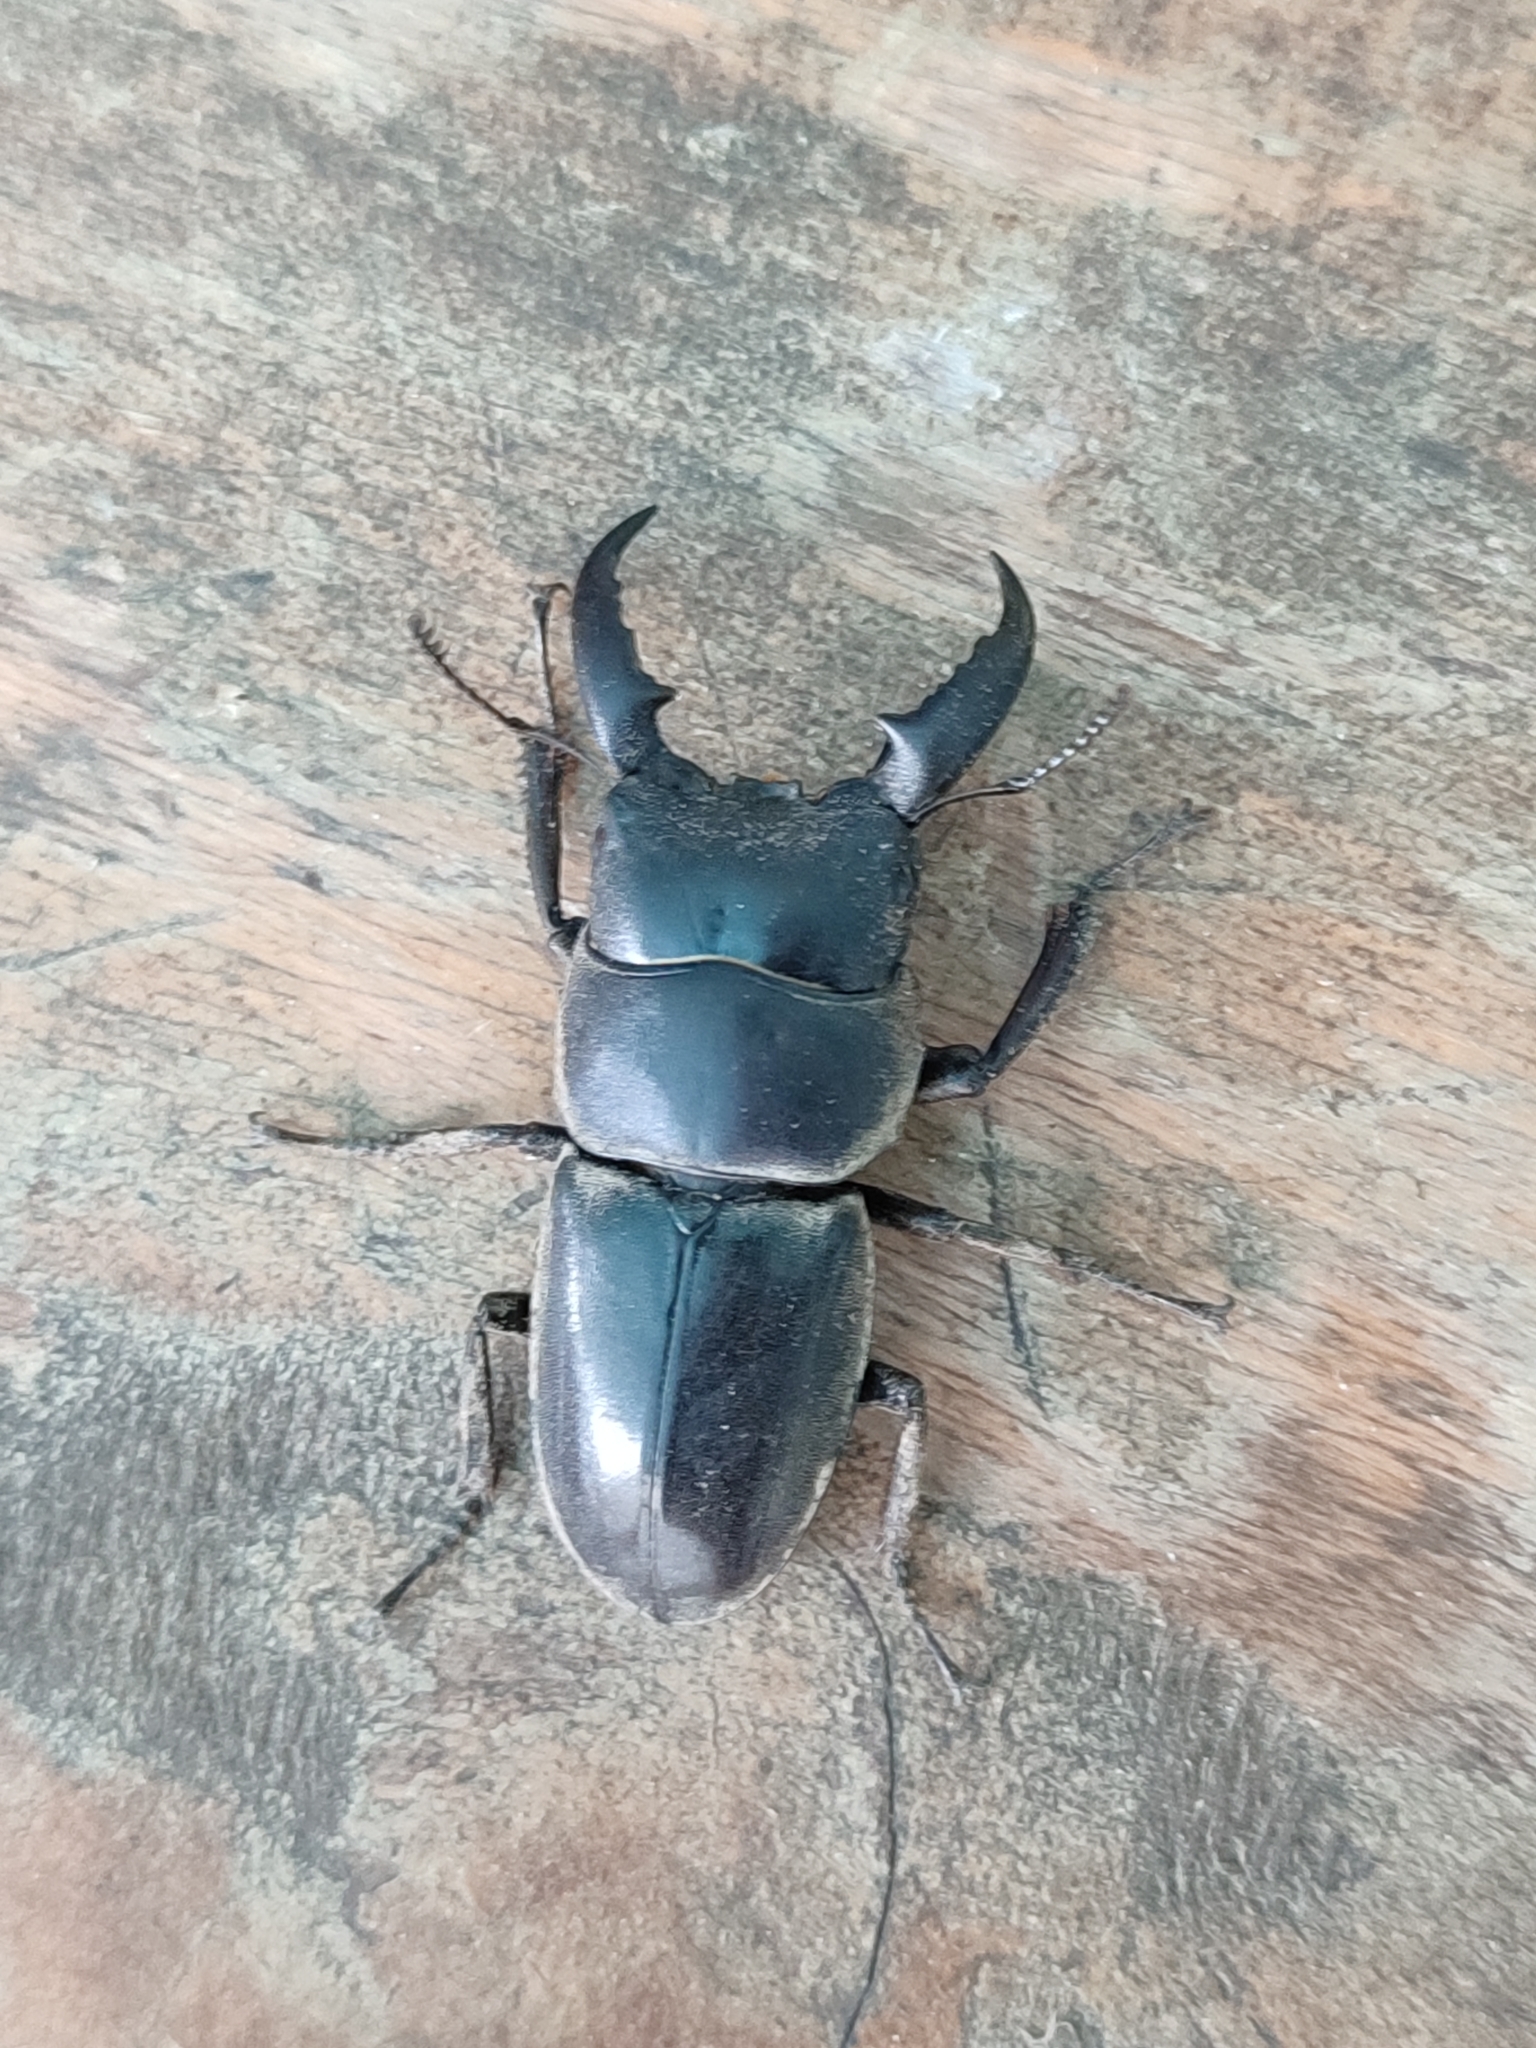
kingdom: Animalia
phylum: Arthropoda
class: Insecta
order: Coleoptera
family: Lucanidae
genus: Serrognathus
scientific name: Serrognathus titanus
